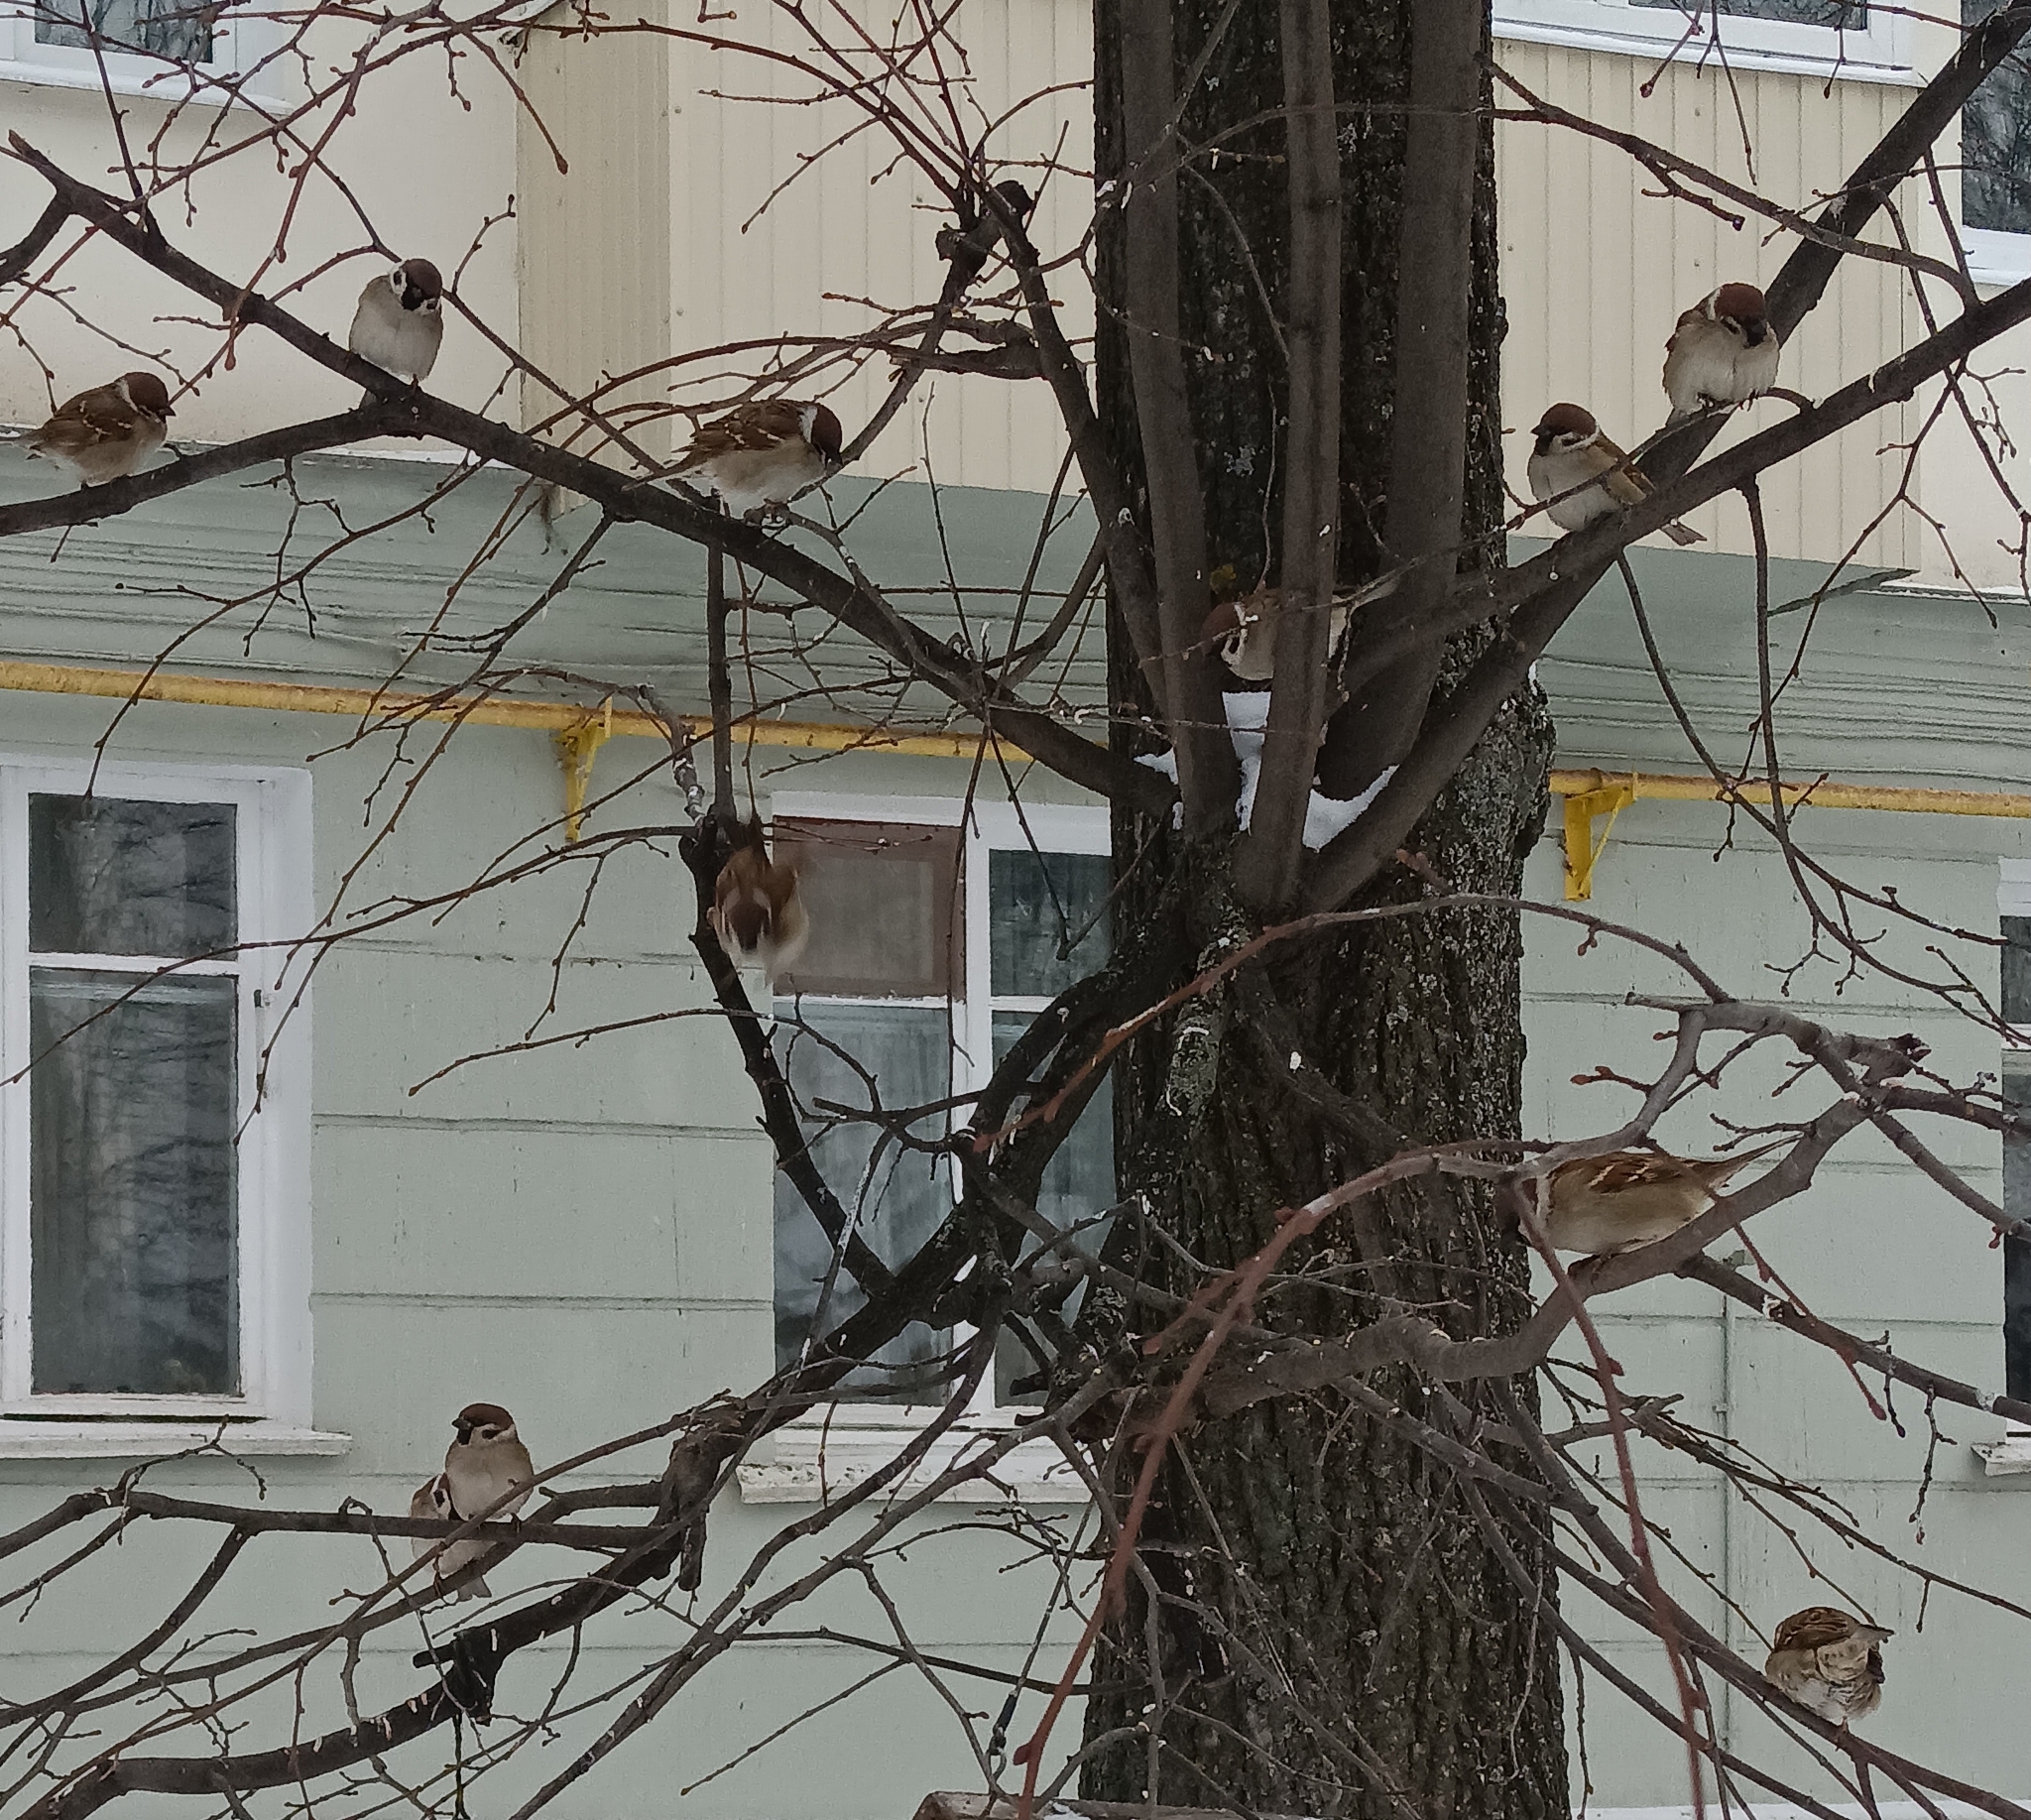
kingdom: Animalia
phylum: Chordata
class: Aves
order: Passeriformes
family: Passeridae
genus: Passer
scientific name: Passer montanus
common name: Eurasian tree sparrow
